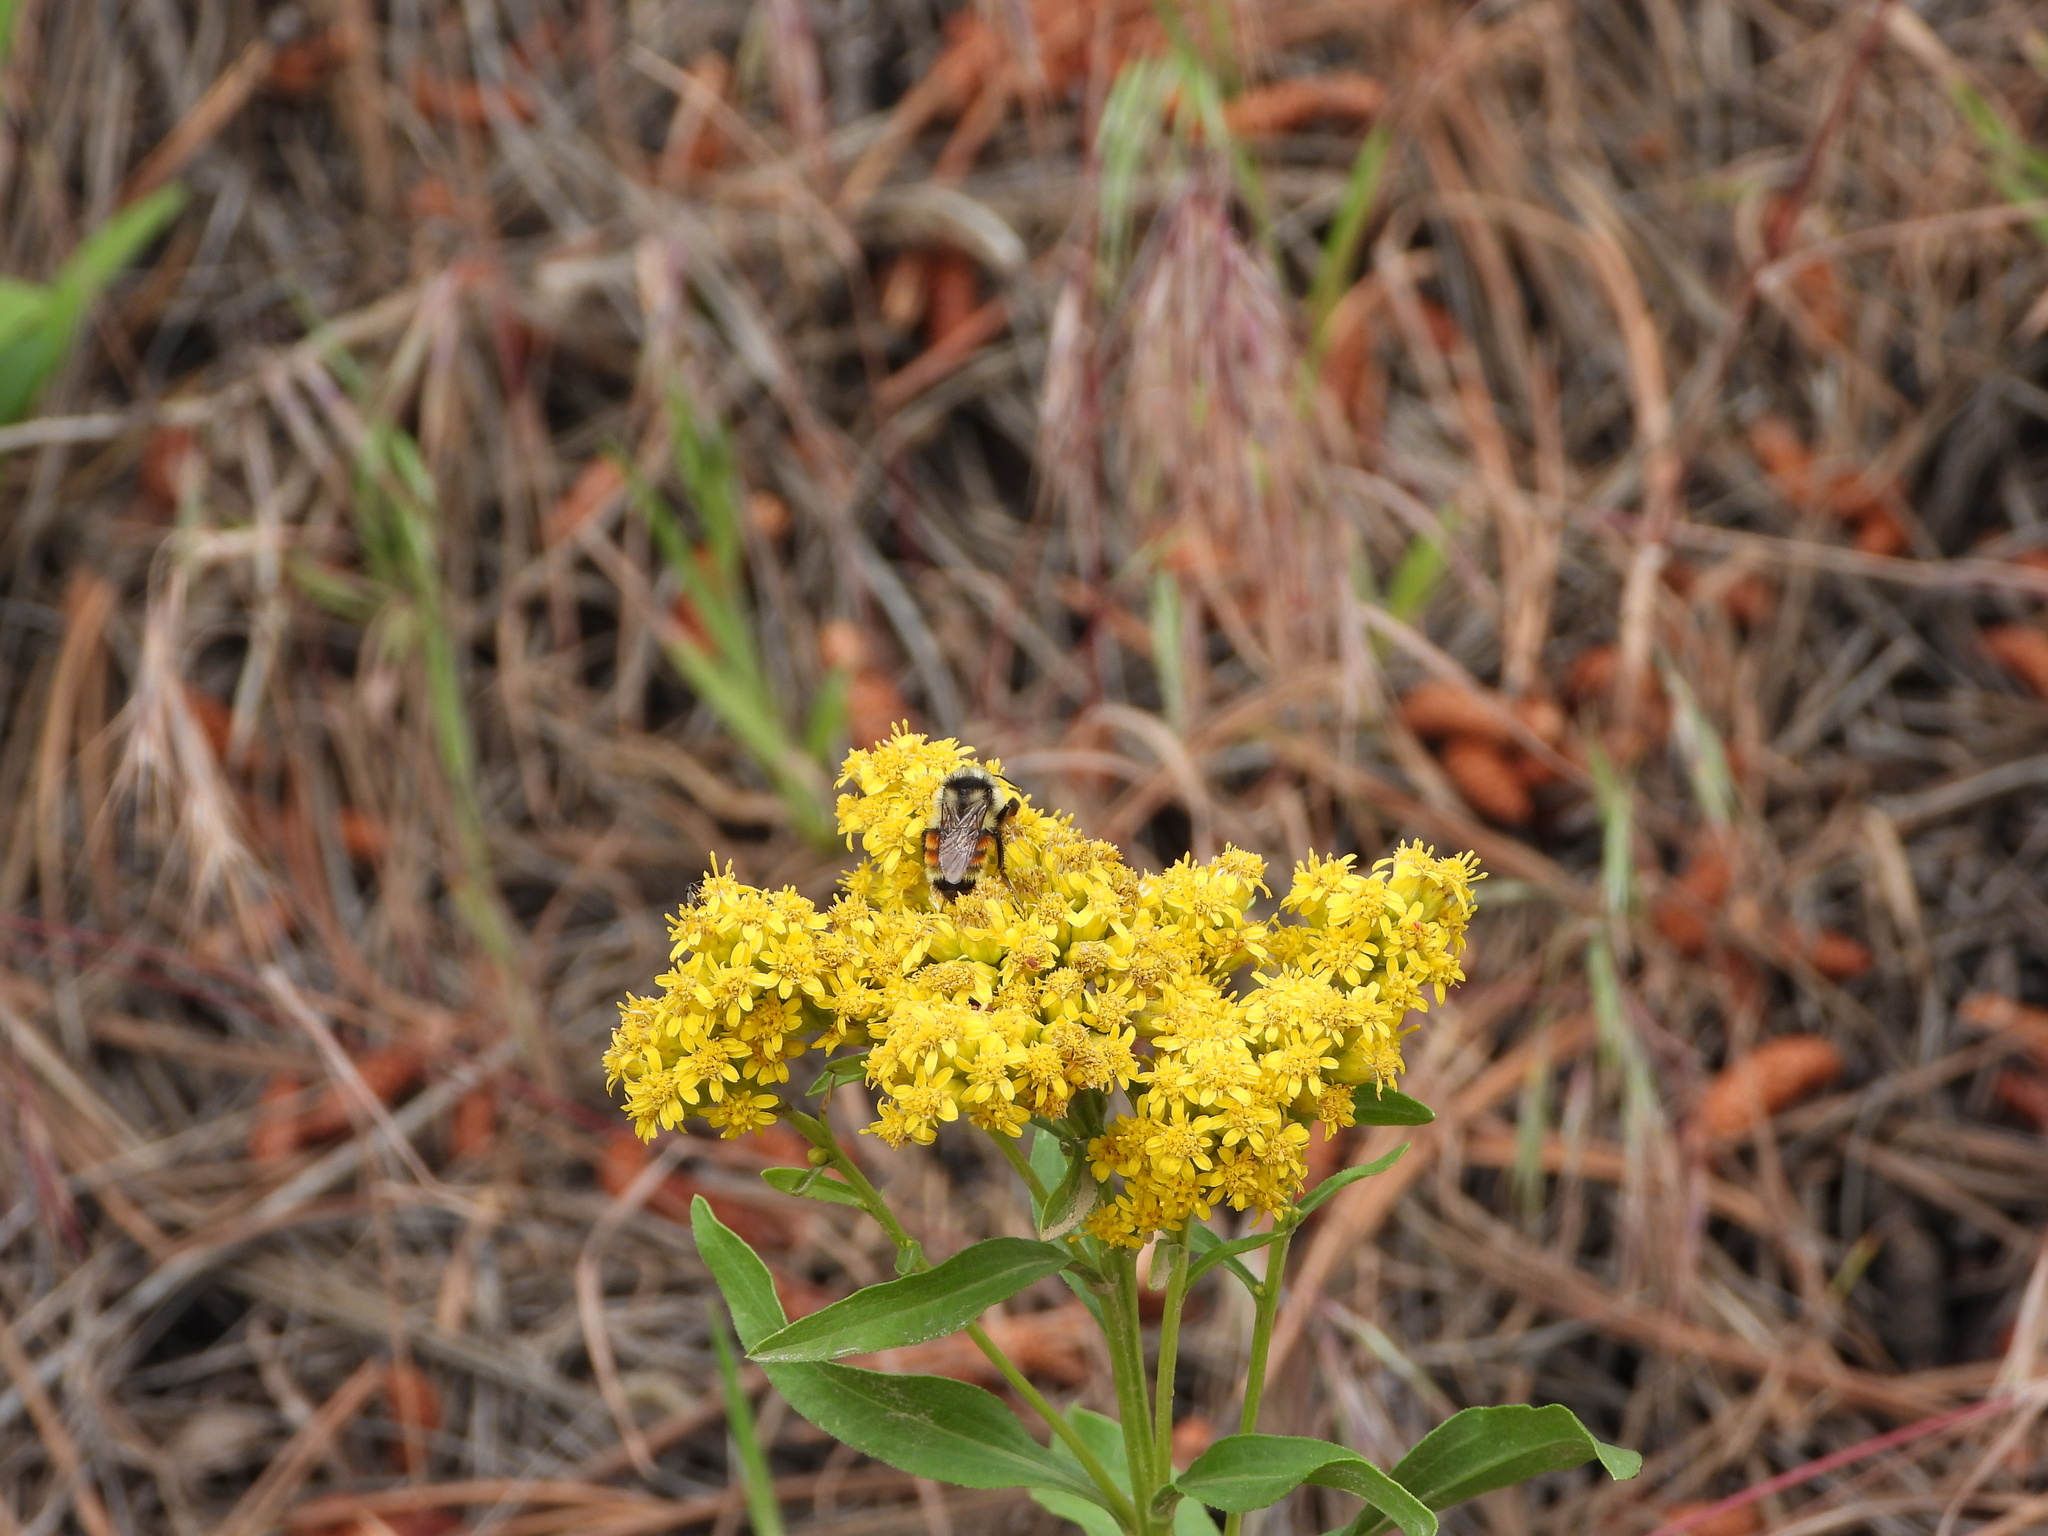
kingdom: Animalia
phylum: Arthropoda
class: Insecta
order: Hymenoptera
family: Apidae
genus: Bombus
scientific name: Bombus bifarius
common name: Two form bumble bee
